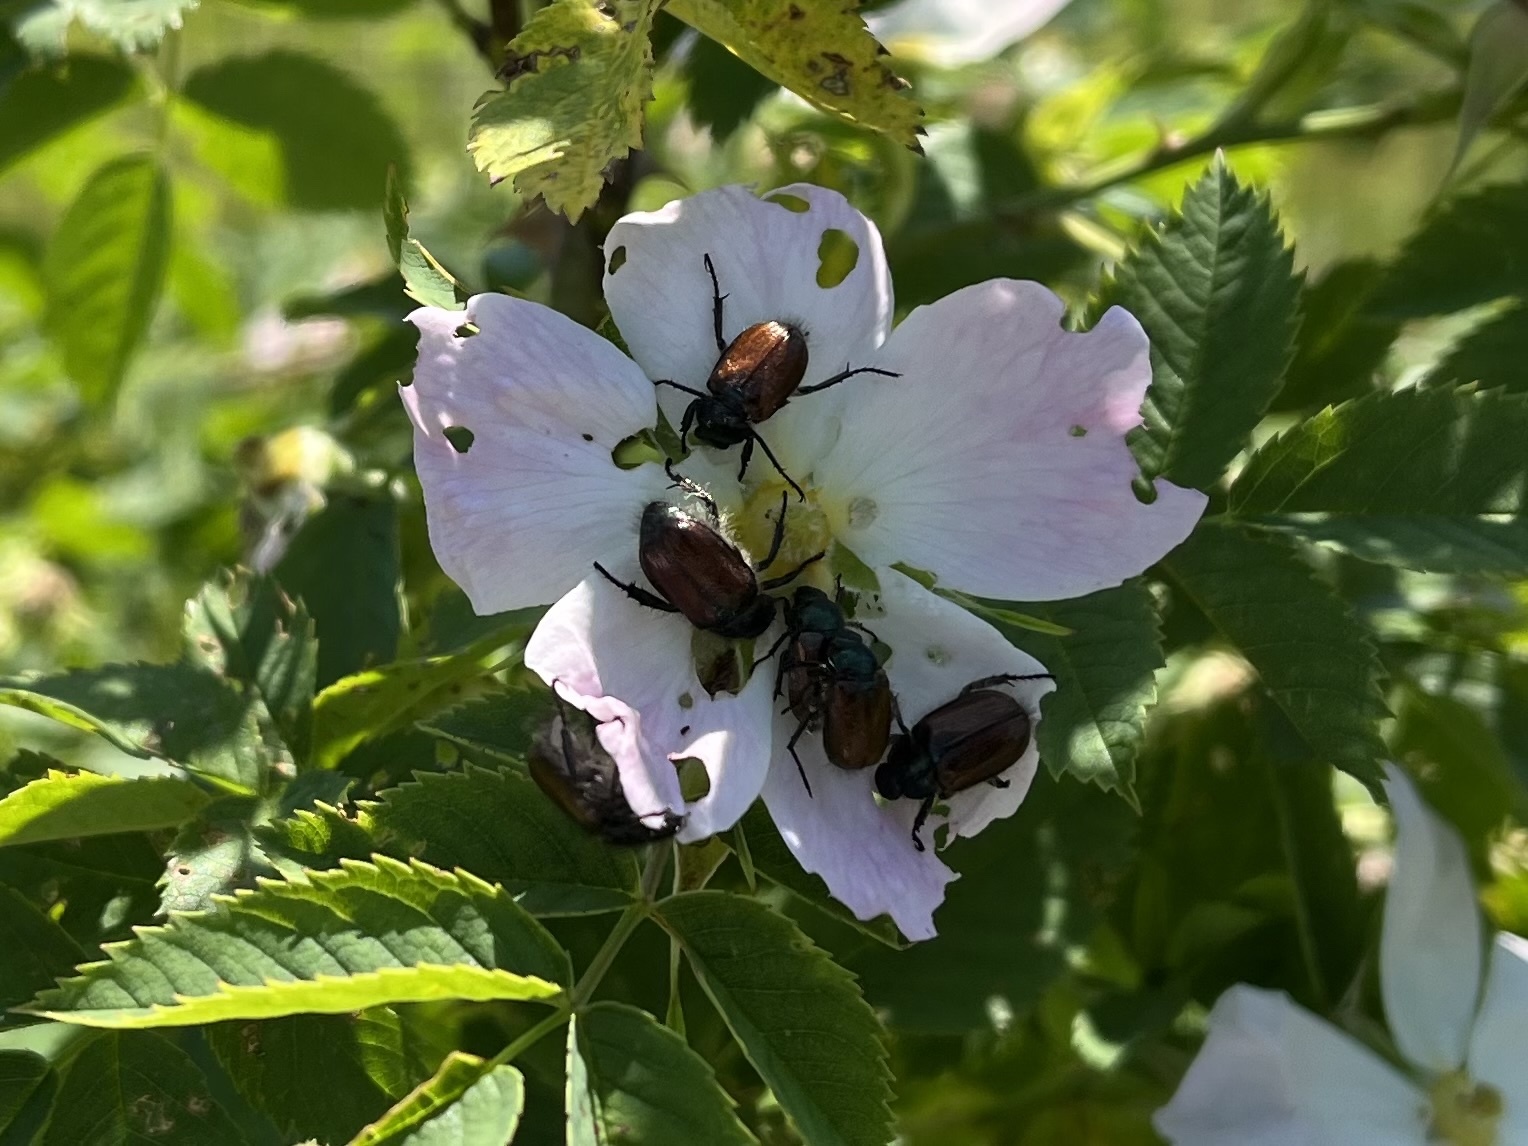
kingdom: Animalia
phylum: Arthropoda
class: Insecta
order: Coleoptera
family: Scarabaeidae
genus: Phyllopertha
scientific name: Phyllopertha horticola
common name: Garden chafer
